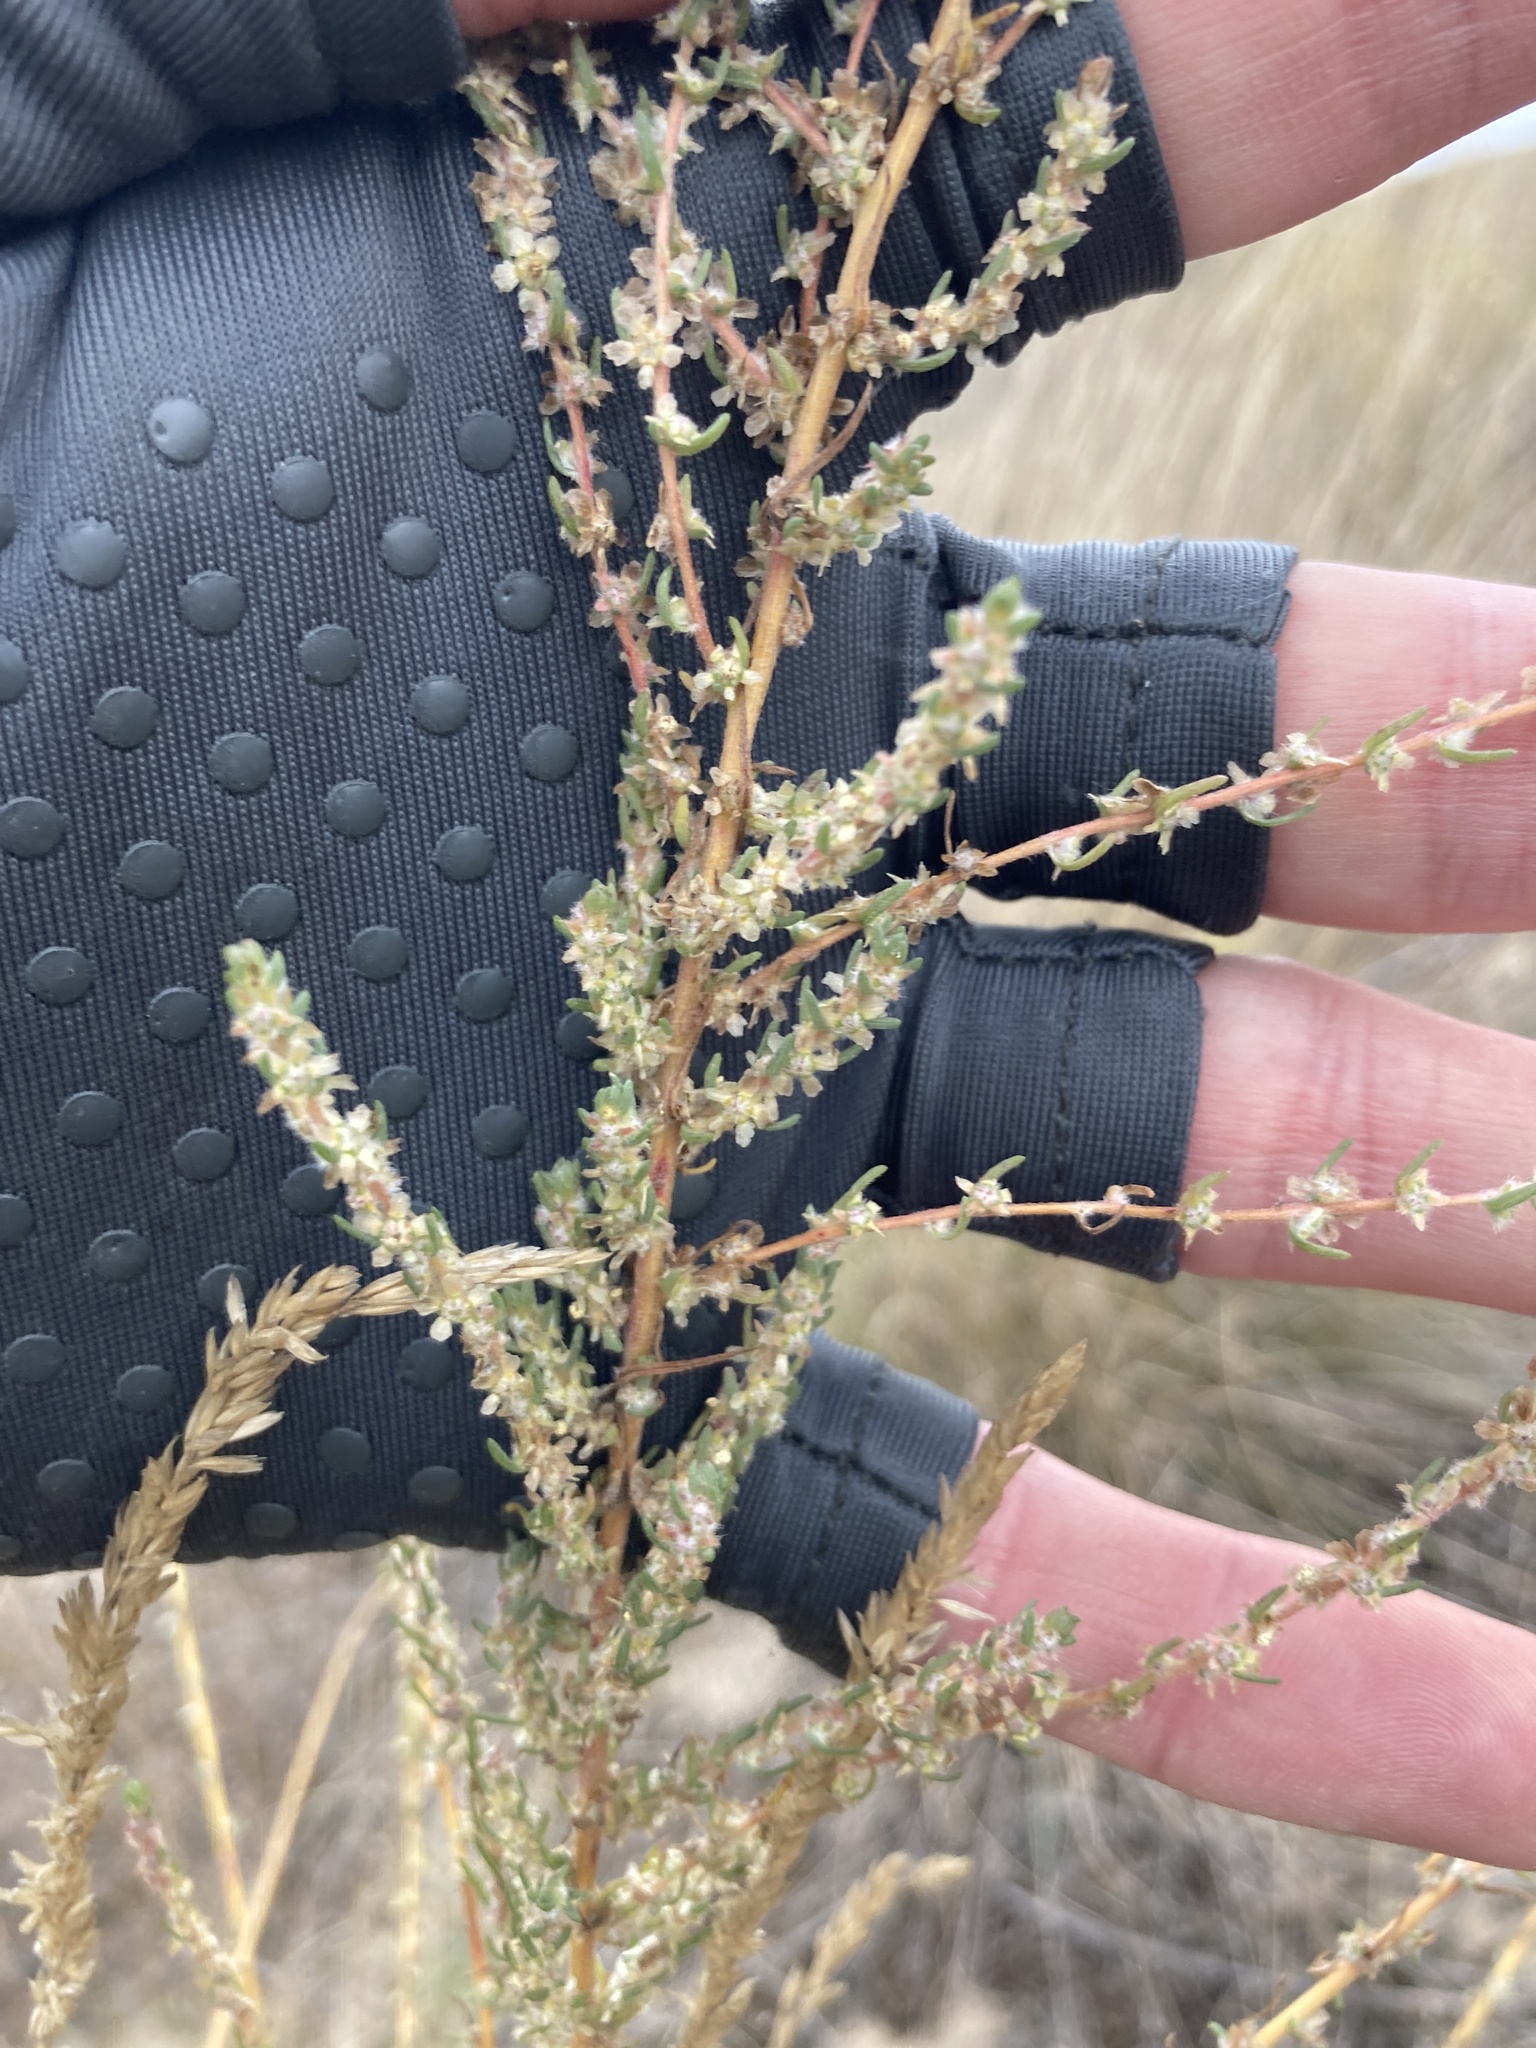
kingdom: Plantae
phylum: Tracheophyta
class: Magnoliopsida
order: Caryophyllales
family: Amaranthaceae
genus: Bassia
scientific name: Bassia prostrata
